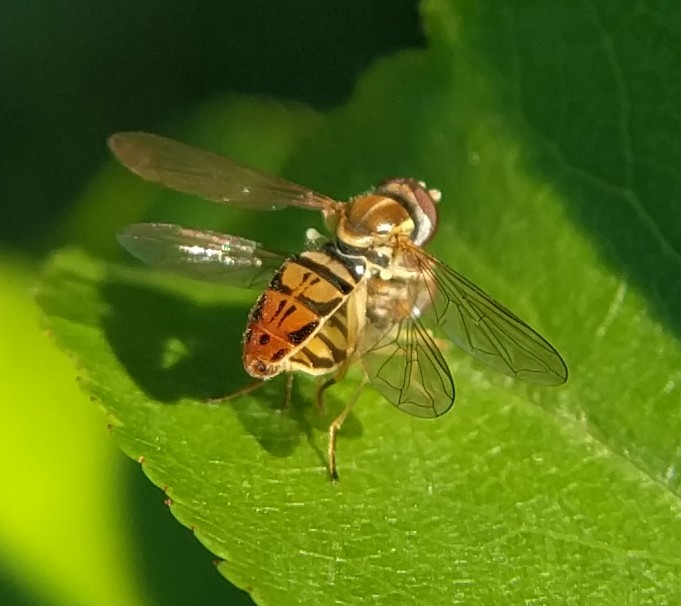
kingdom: Animalia
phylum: Arthropoda
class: Insecta
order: Diptera
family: Syrphidae
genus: Toxomerus
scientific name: Toxomerus marginatus
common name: Syrphid fly
